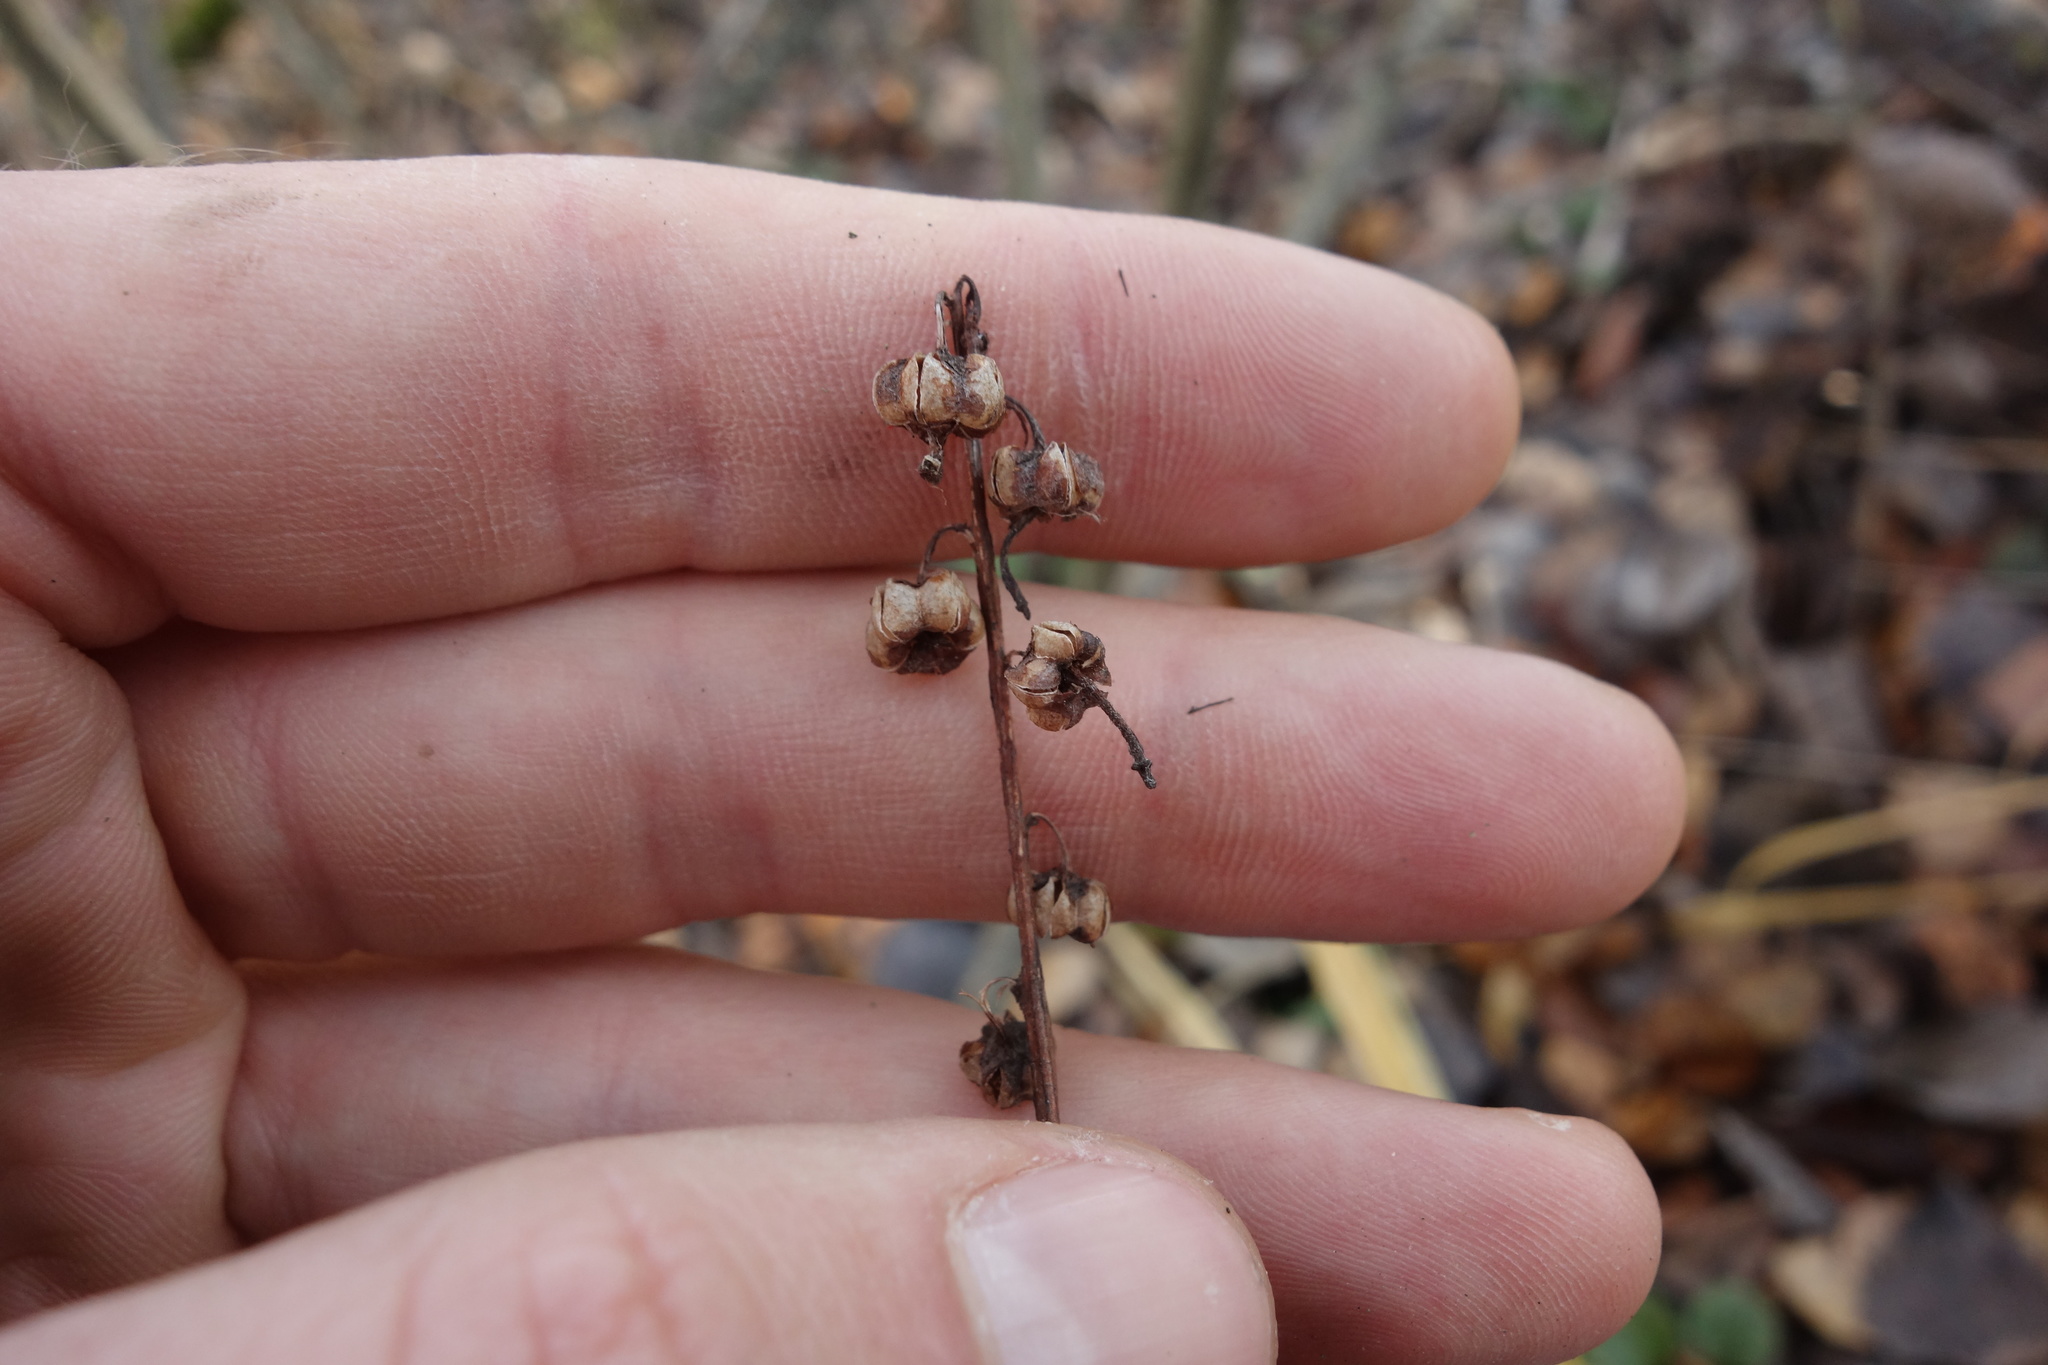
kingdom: Plantae
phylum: Tracheophyta
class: Magnoliopsida
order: Ericales
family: Ericaceae
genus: Pyrola
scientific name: Pyrola rotundifolia
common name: Round-leaved wintergreen
